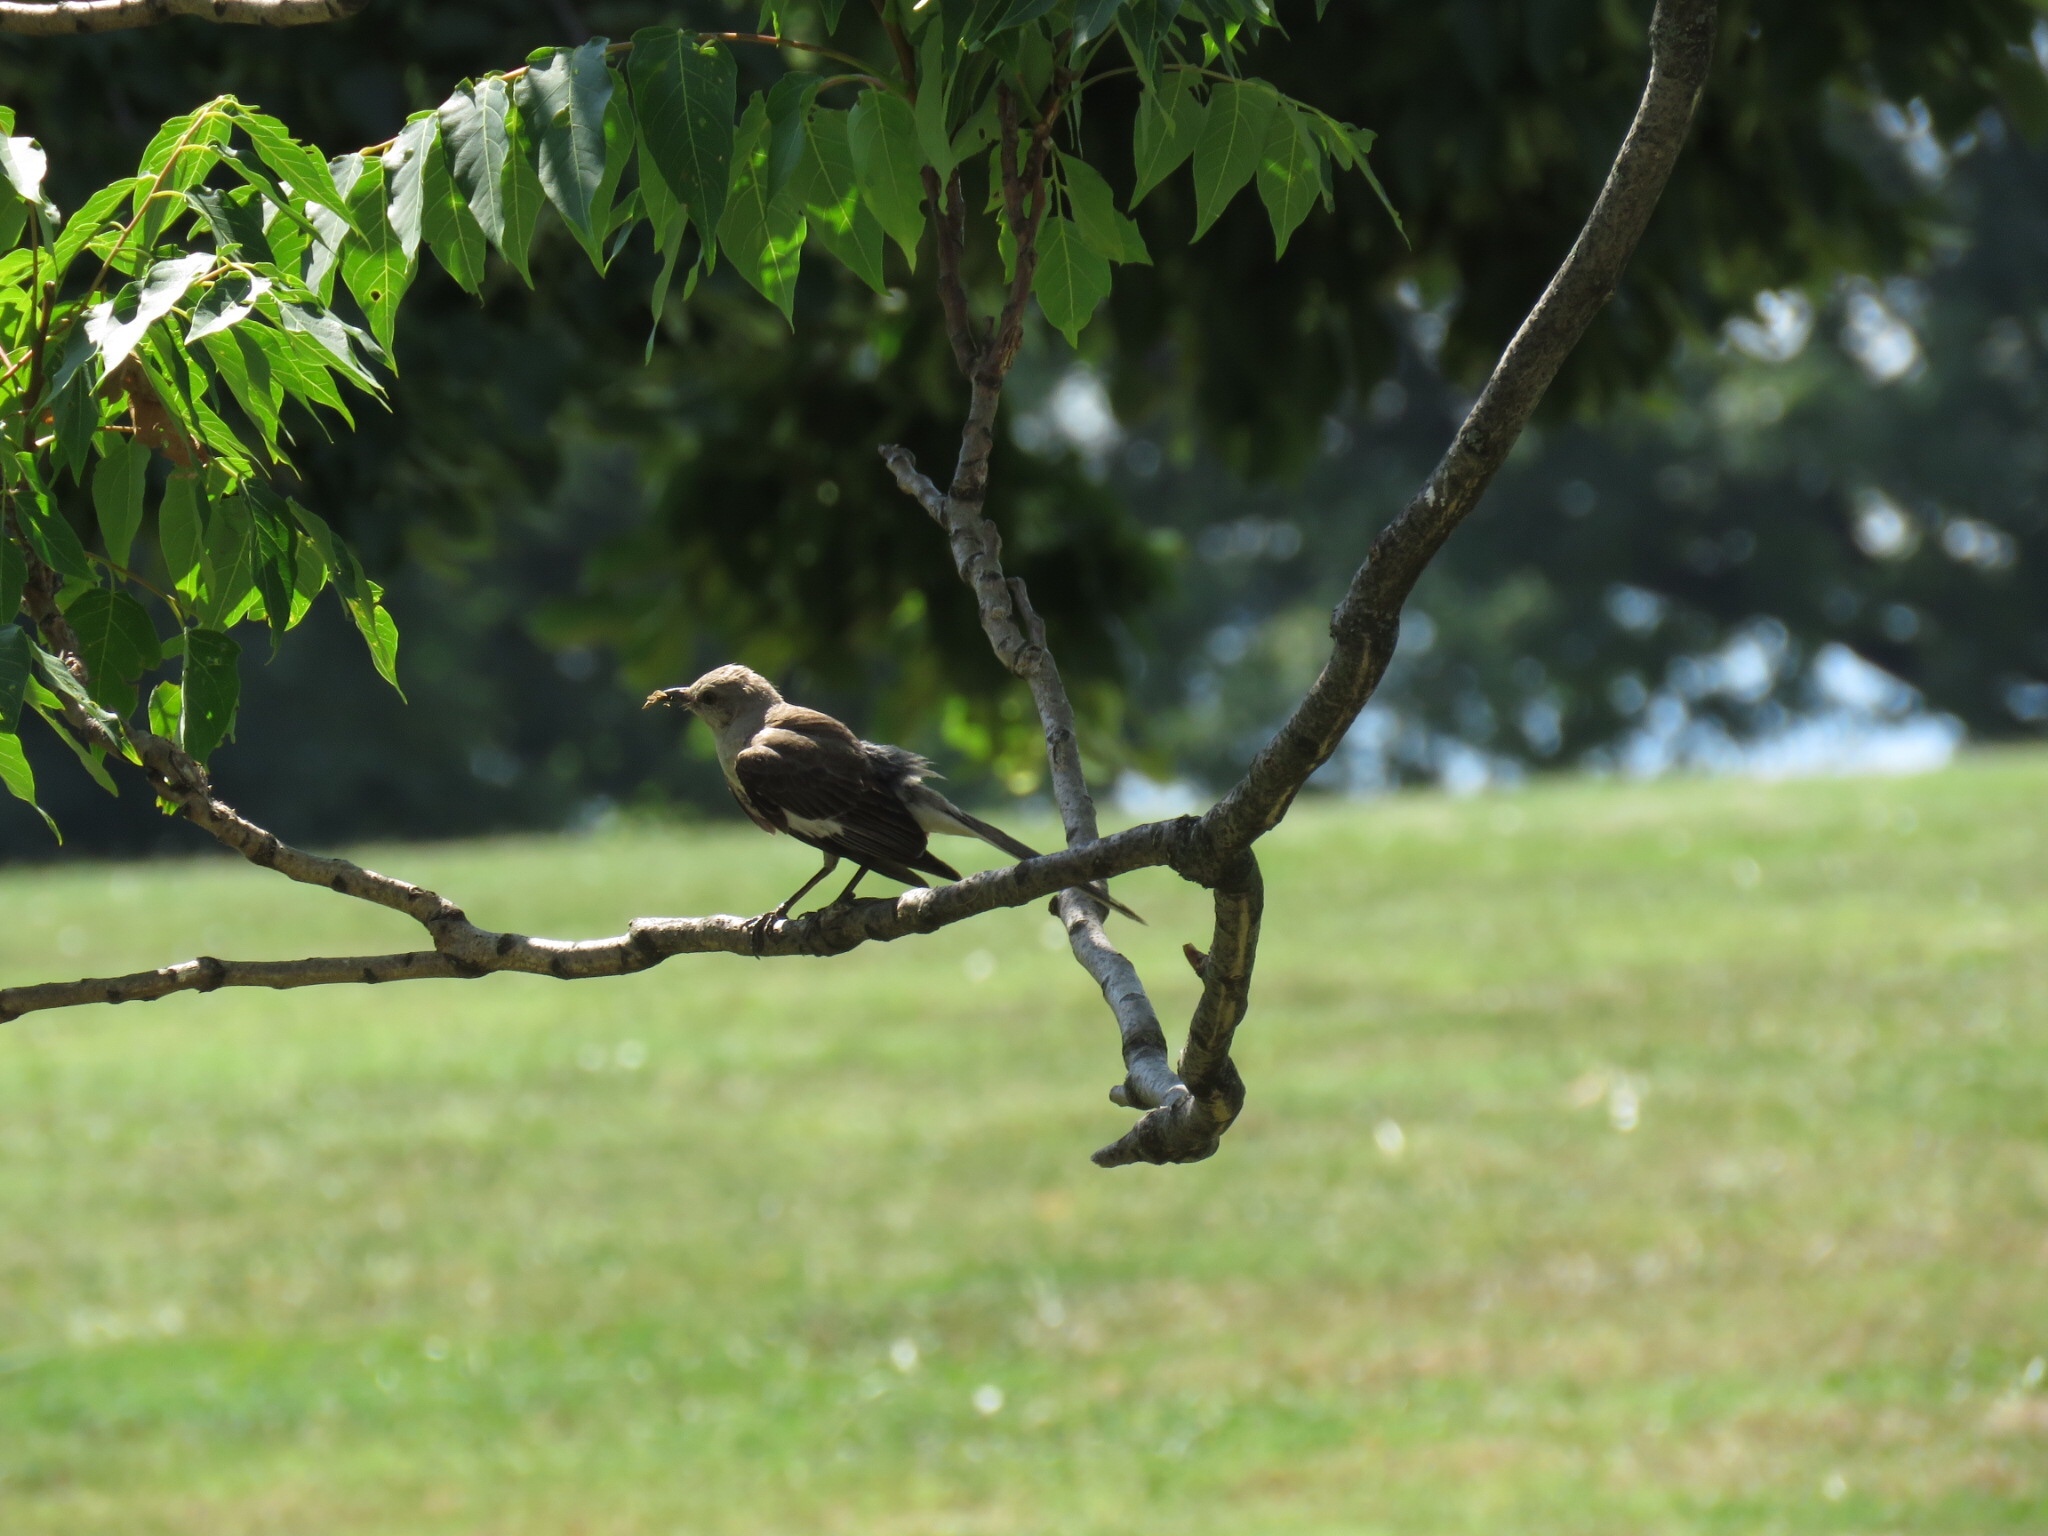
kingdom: Animalia
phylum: Chordata
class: Aves
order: Passeriformes
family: Mimidae
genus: Mimus
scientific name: Mimus polyglottos
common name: Northern mockingbird
